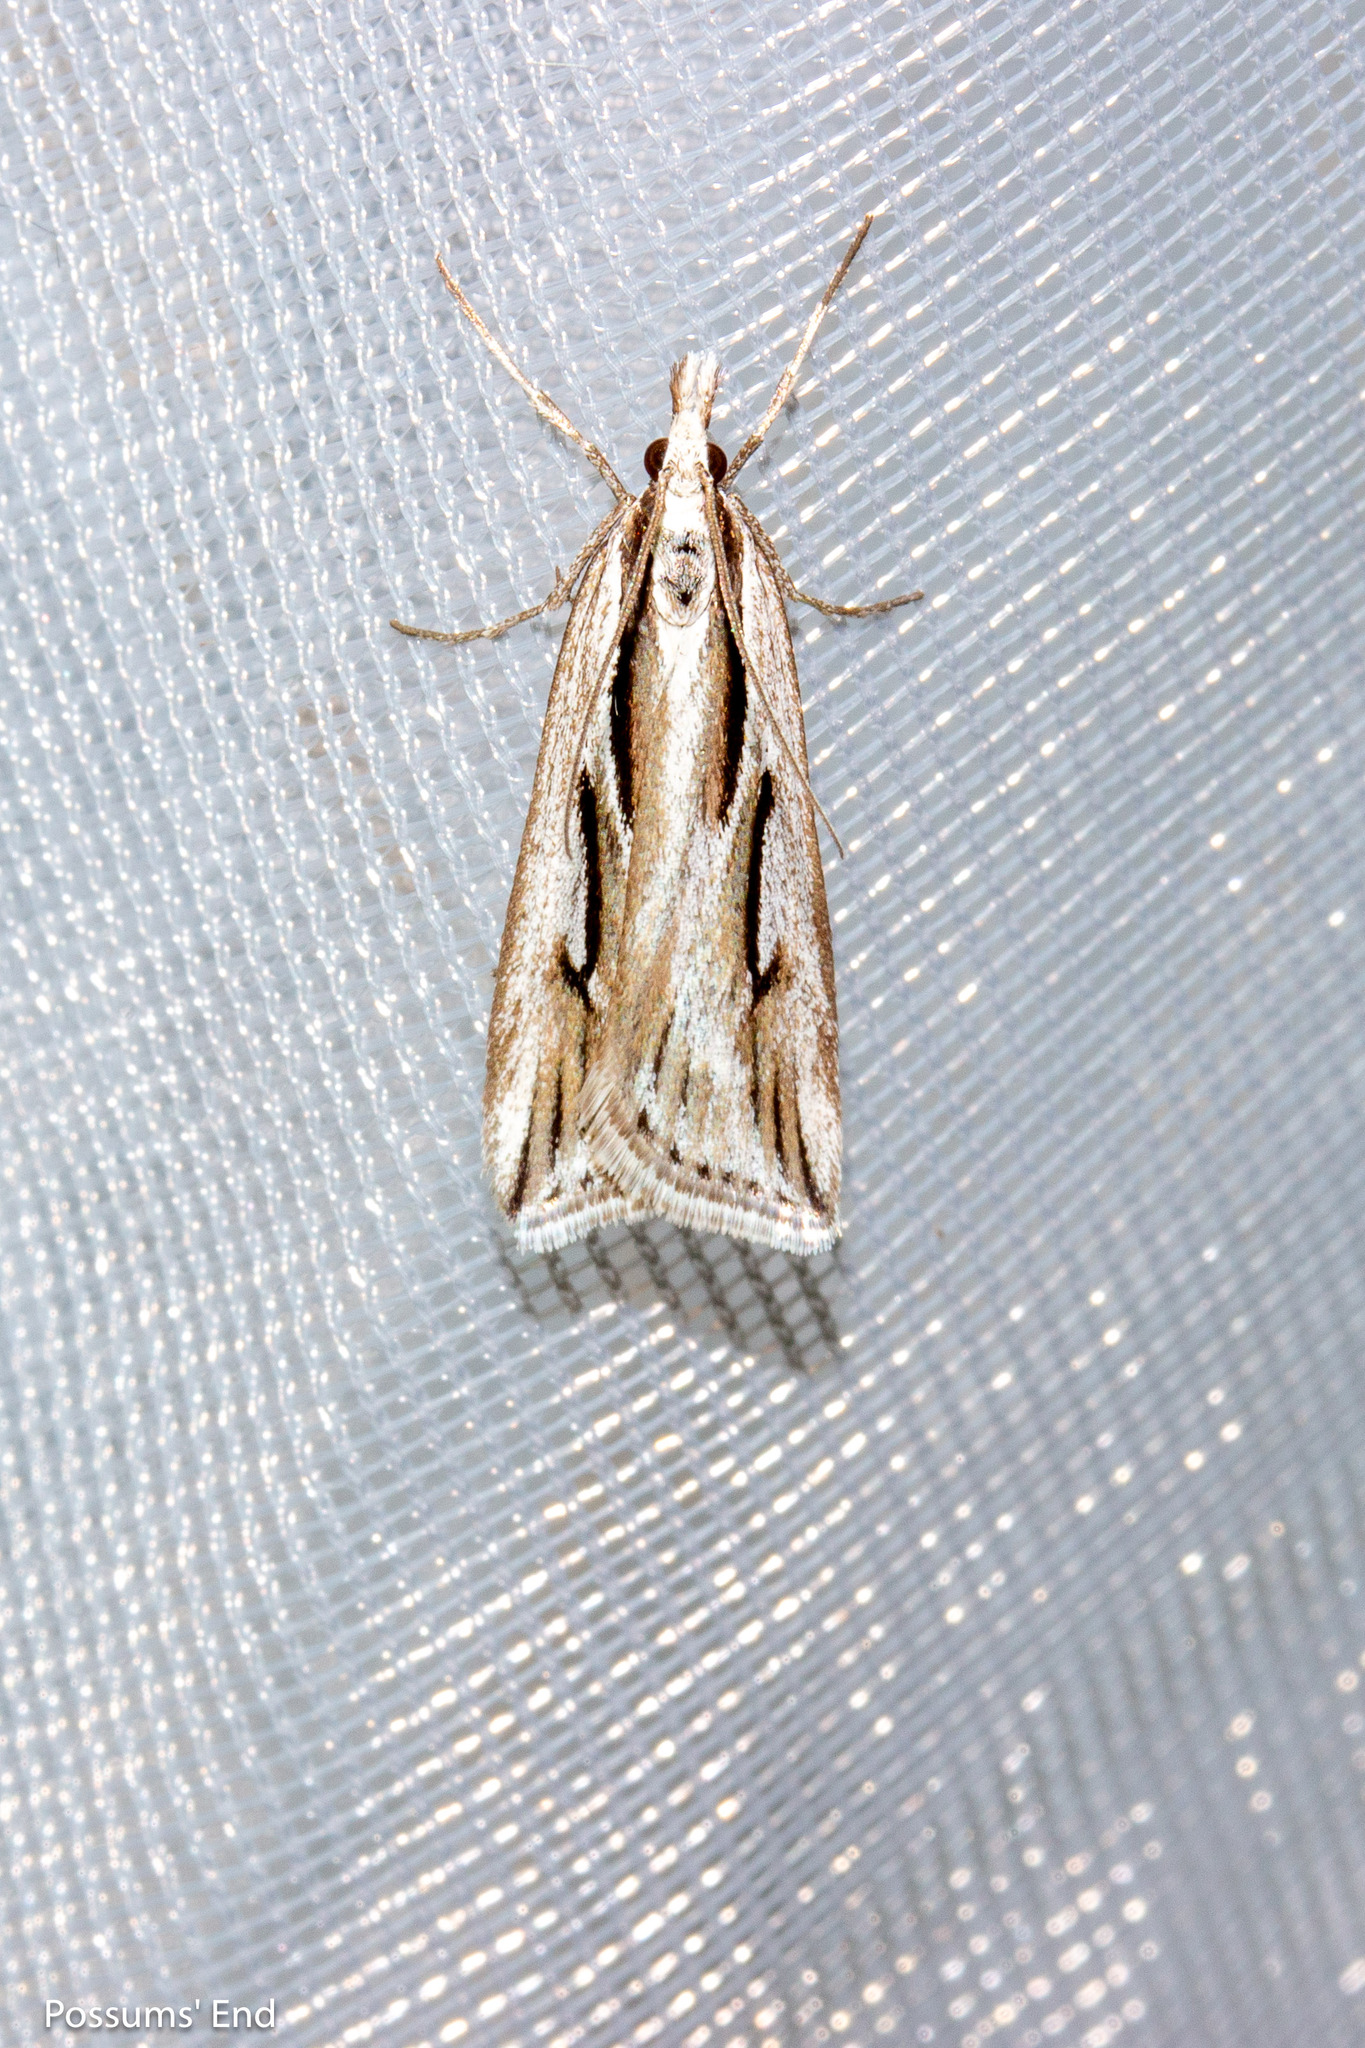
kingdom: Animalia
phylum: Arthropoda
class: Insecta
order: Lepidoptera
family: Crambidae
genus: Scoparia
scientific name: Scoparia panopla
